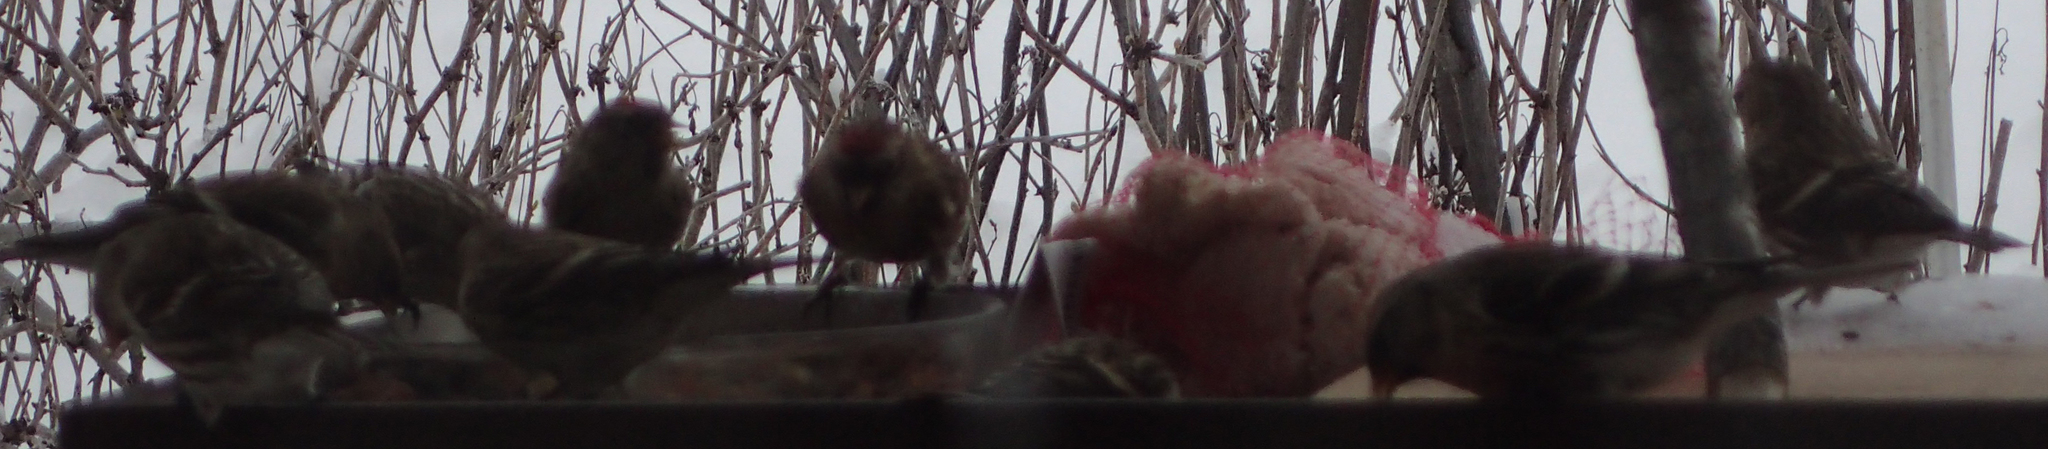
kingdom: Animalia
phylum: Chordata
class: Aves
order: Passeriformes
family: Fringillidae
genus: Acanthis
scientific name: Acanthis flammea
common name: Common redpoll
